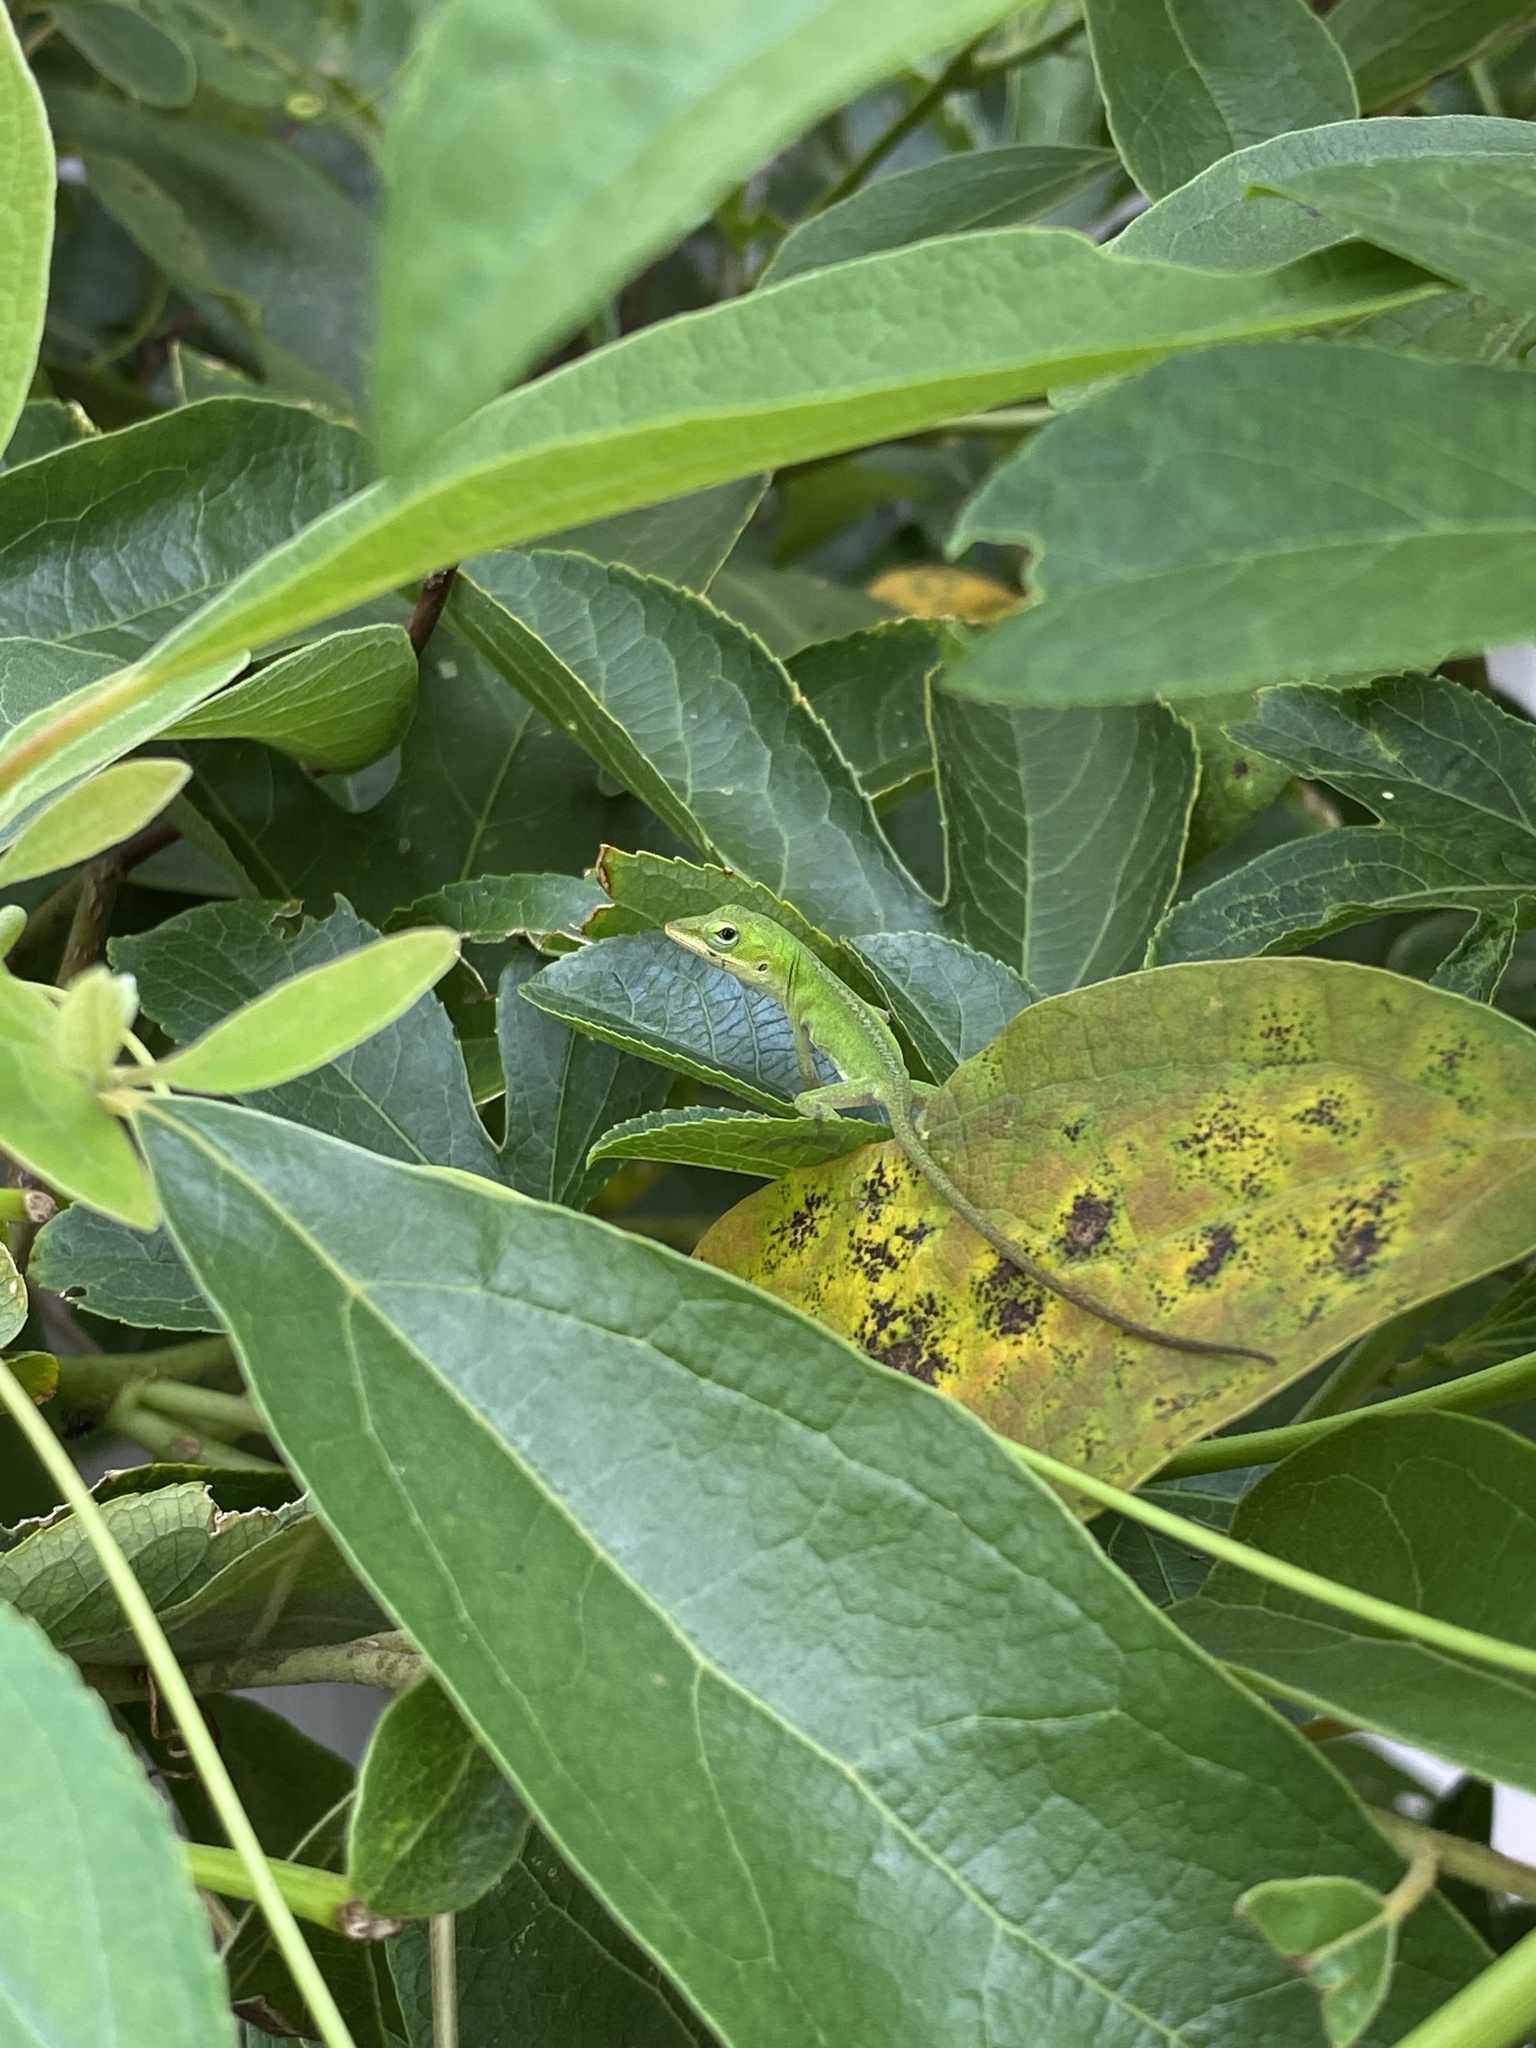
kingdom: Animalia
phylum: Chordata
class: Squamata
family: Dactyloidae
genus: Anolis
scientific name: Anolis carolinensis
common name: Green anole
